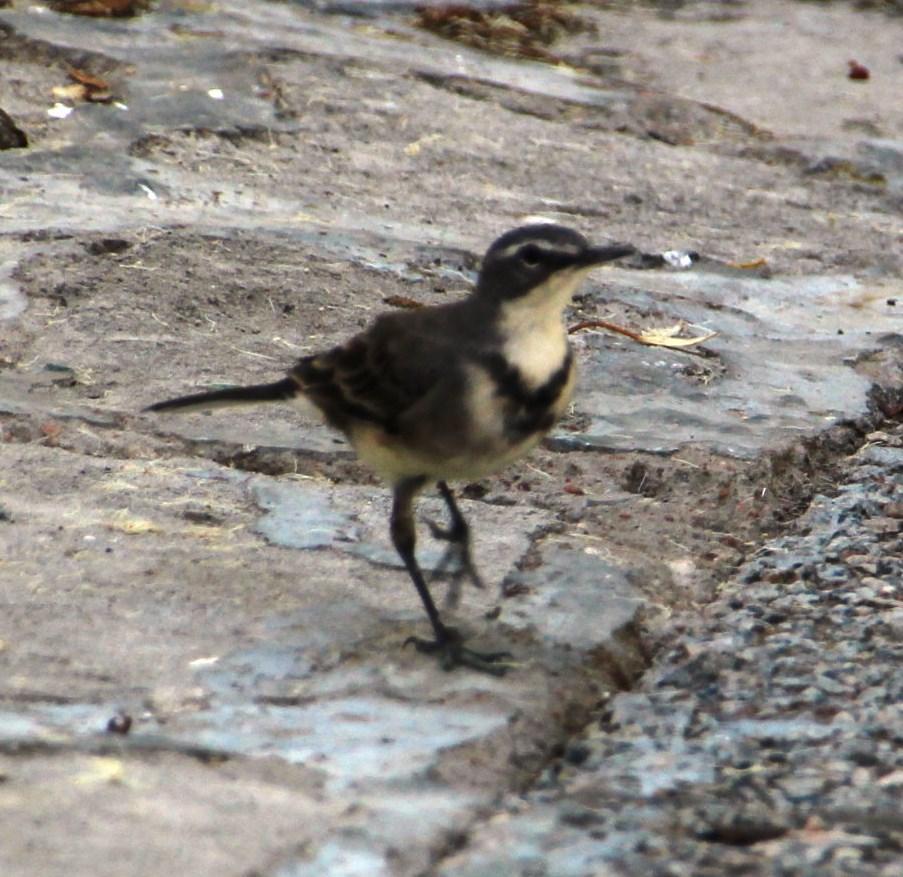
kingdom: Animalia
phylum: Chordata
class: Aves
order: Passeriformes
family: Motacillidae
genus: Motacilla
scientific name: Motacilla capensis
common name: Cape wagtail
